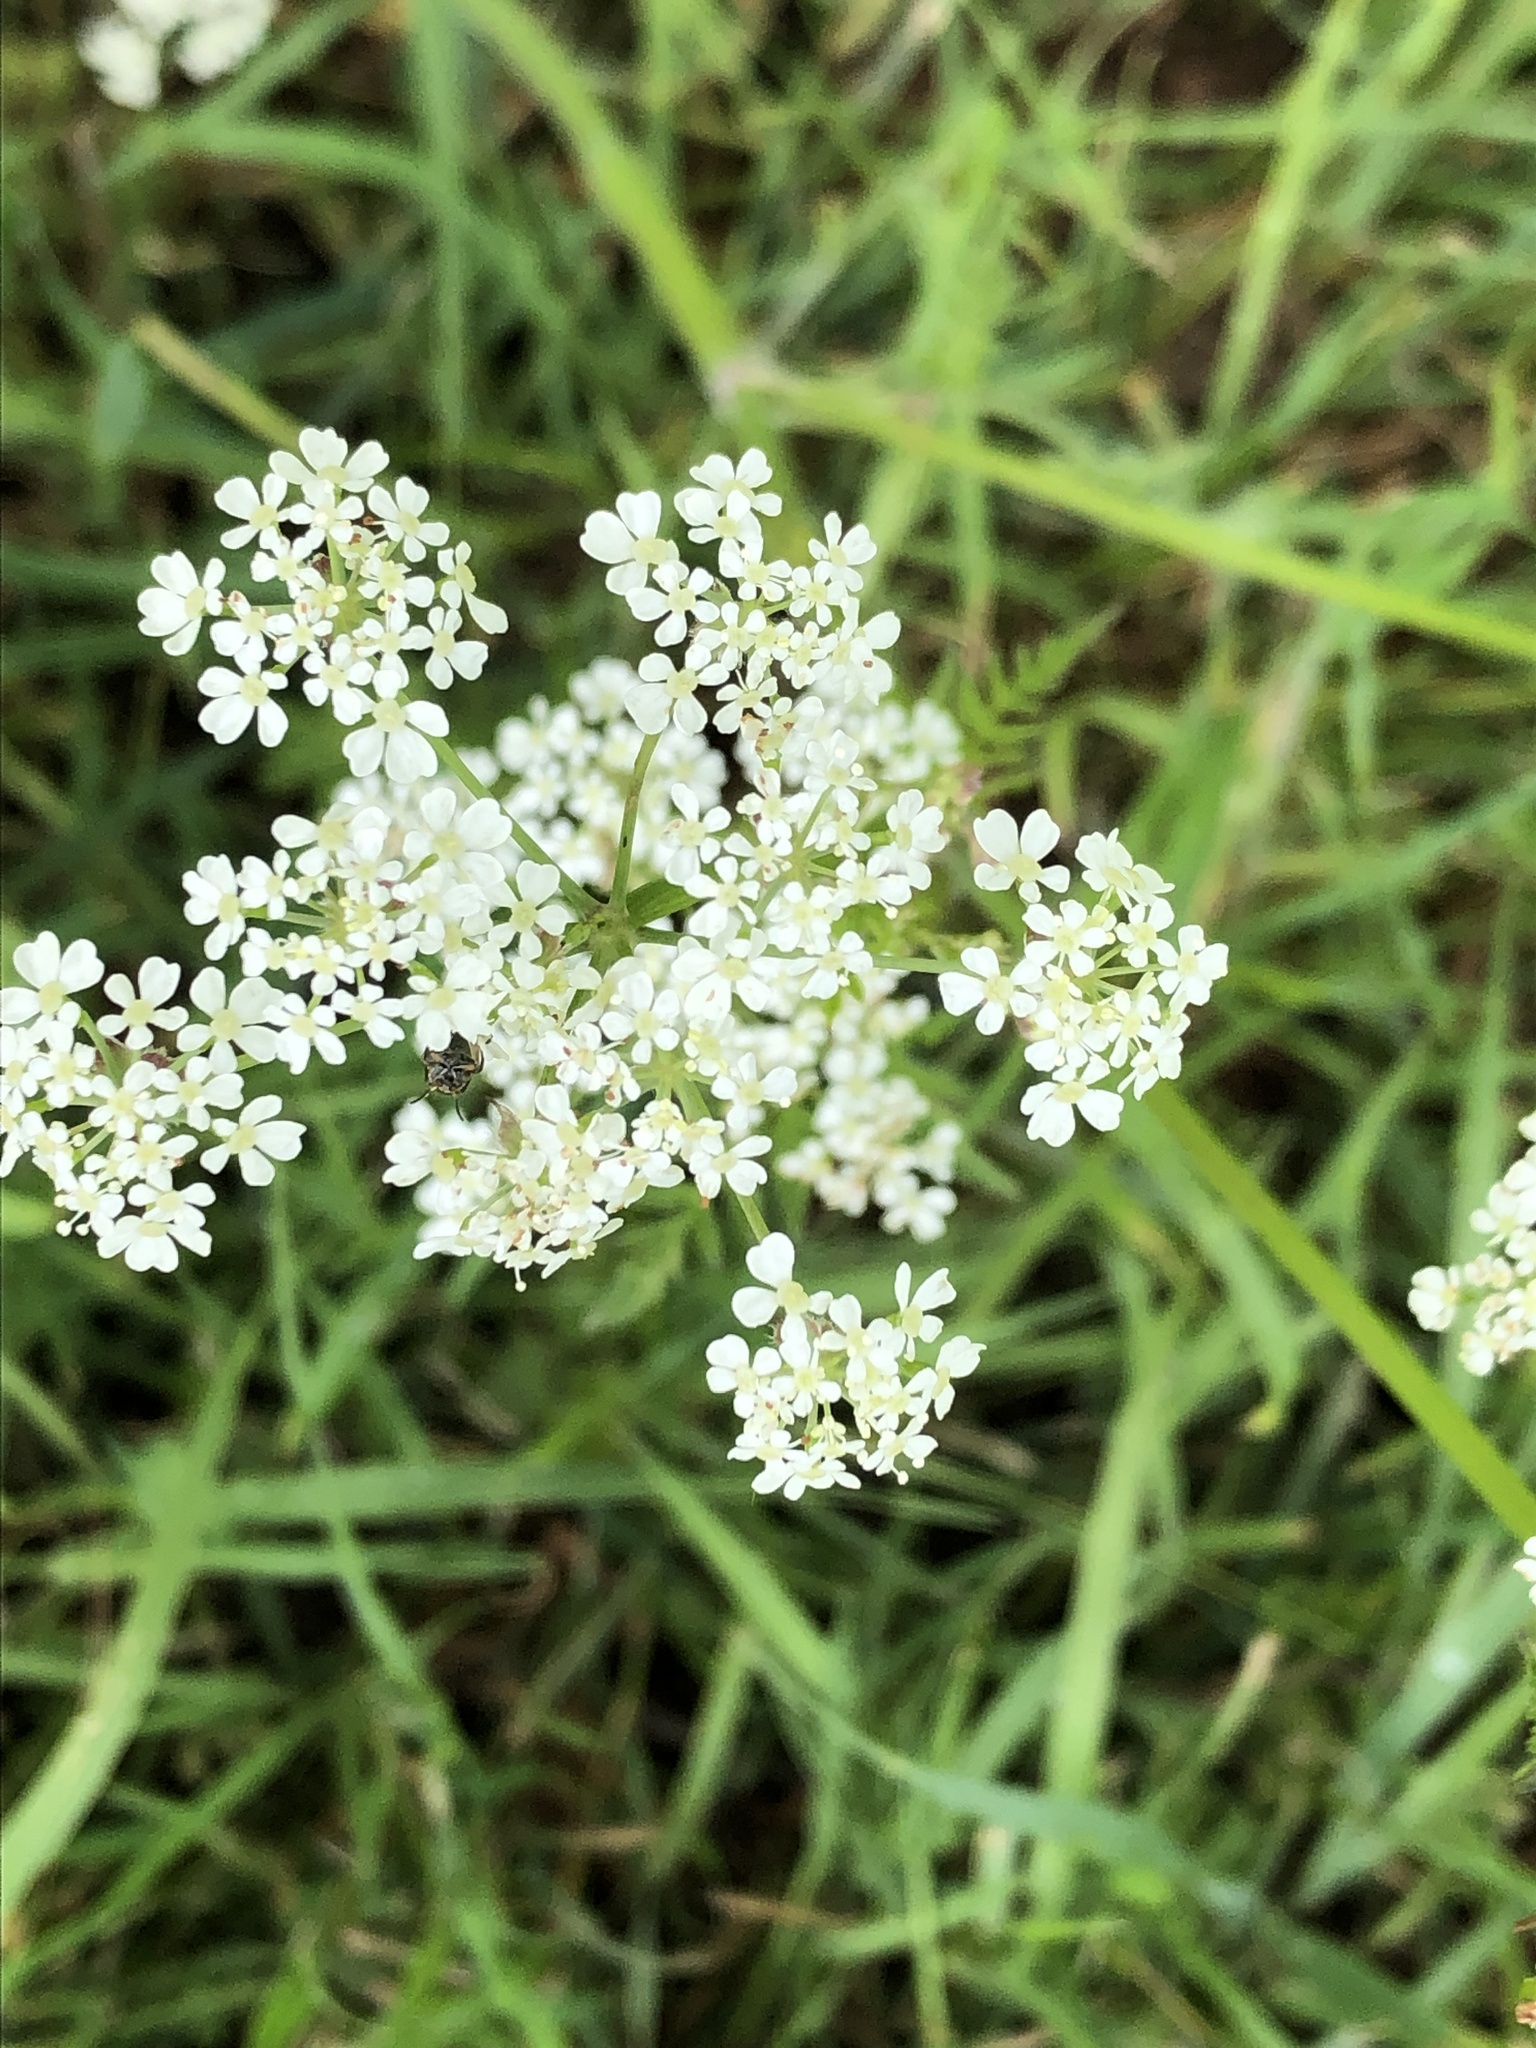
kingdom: Plantae
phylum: Tracheophyta
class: Magnoliopsida
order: Apiales
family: Apiaceae
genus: Anthriscus
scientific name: Anthriscus sylvestris
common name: Cow parsley
